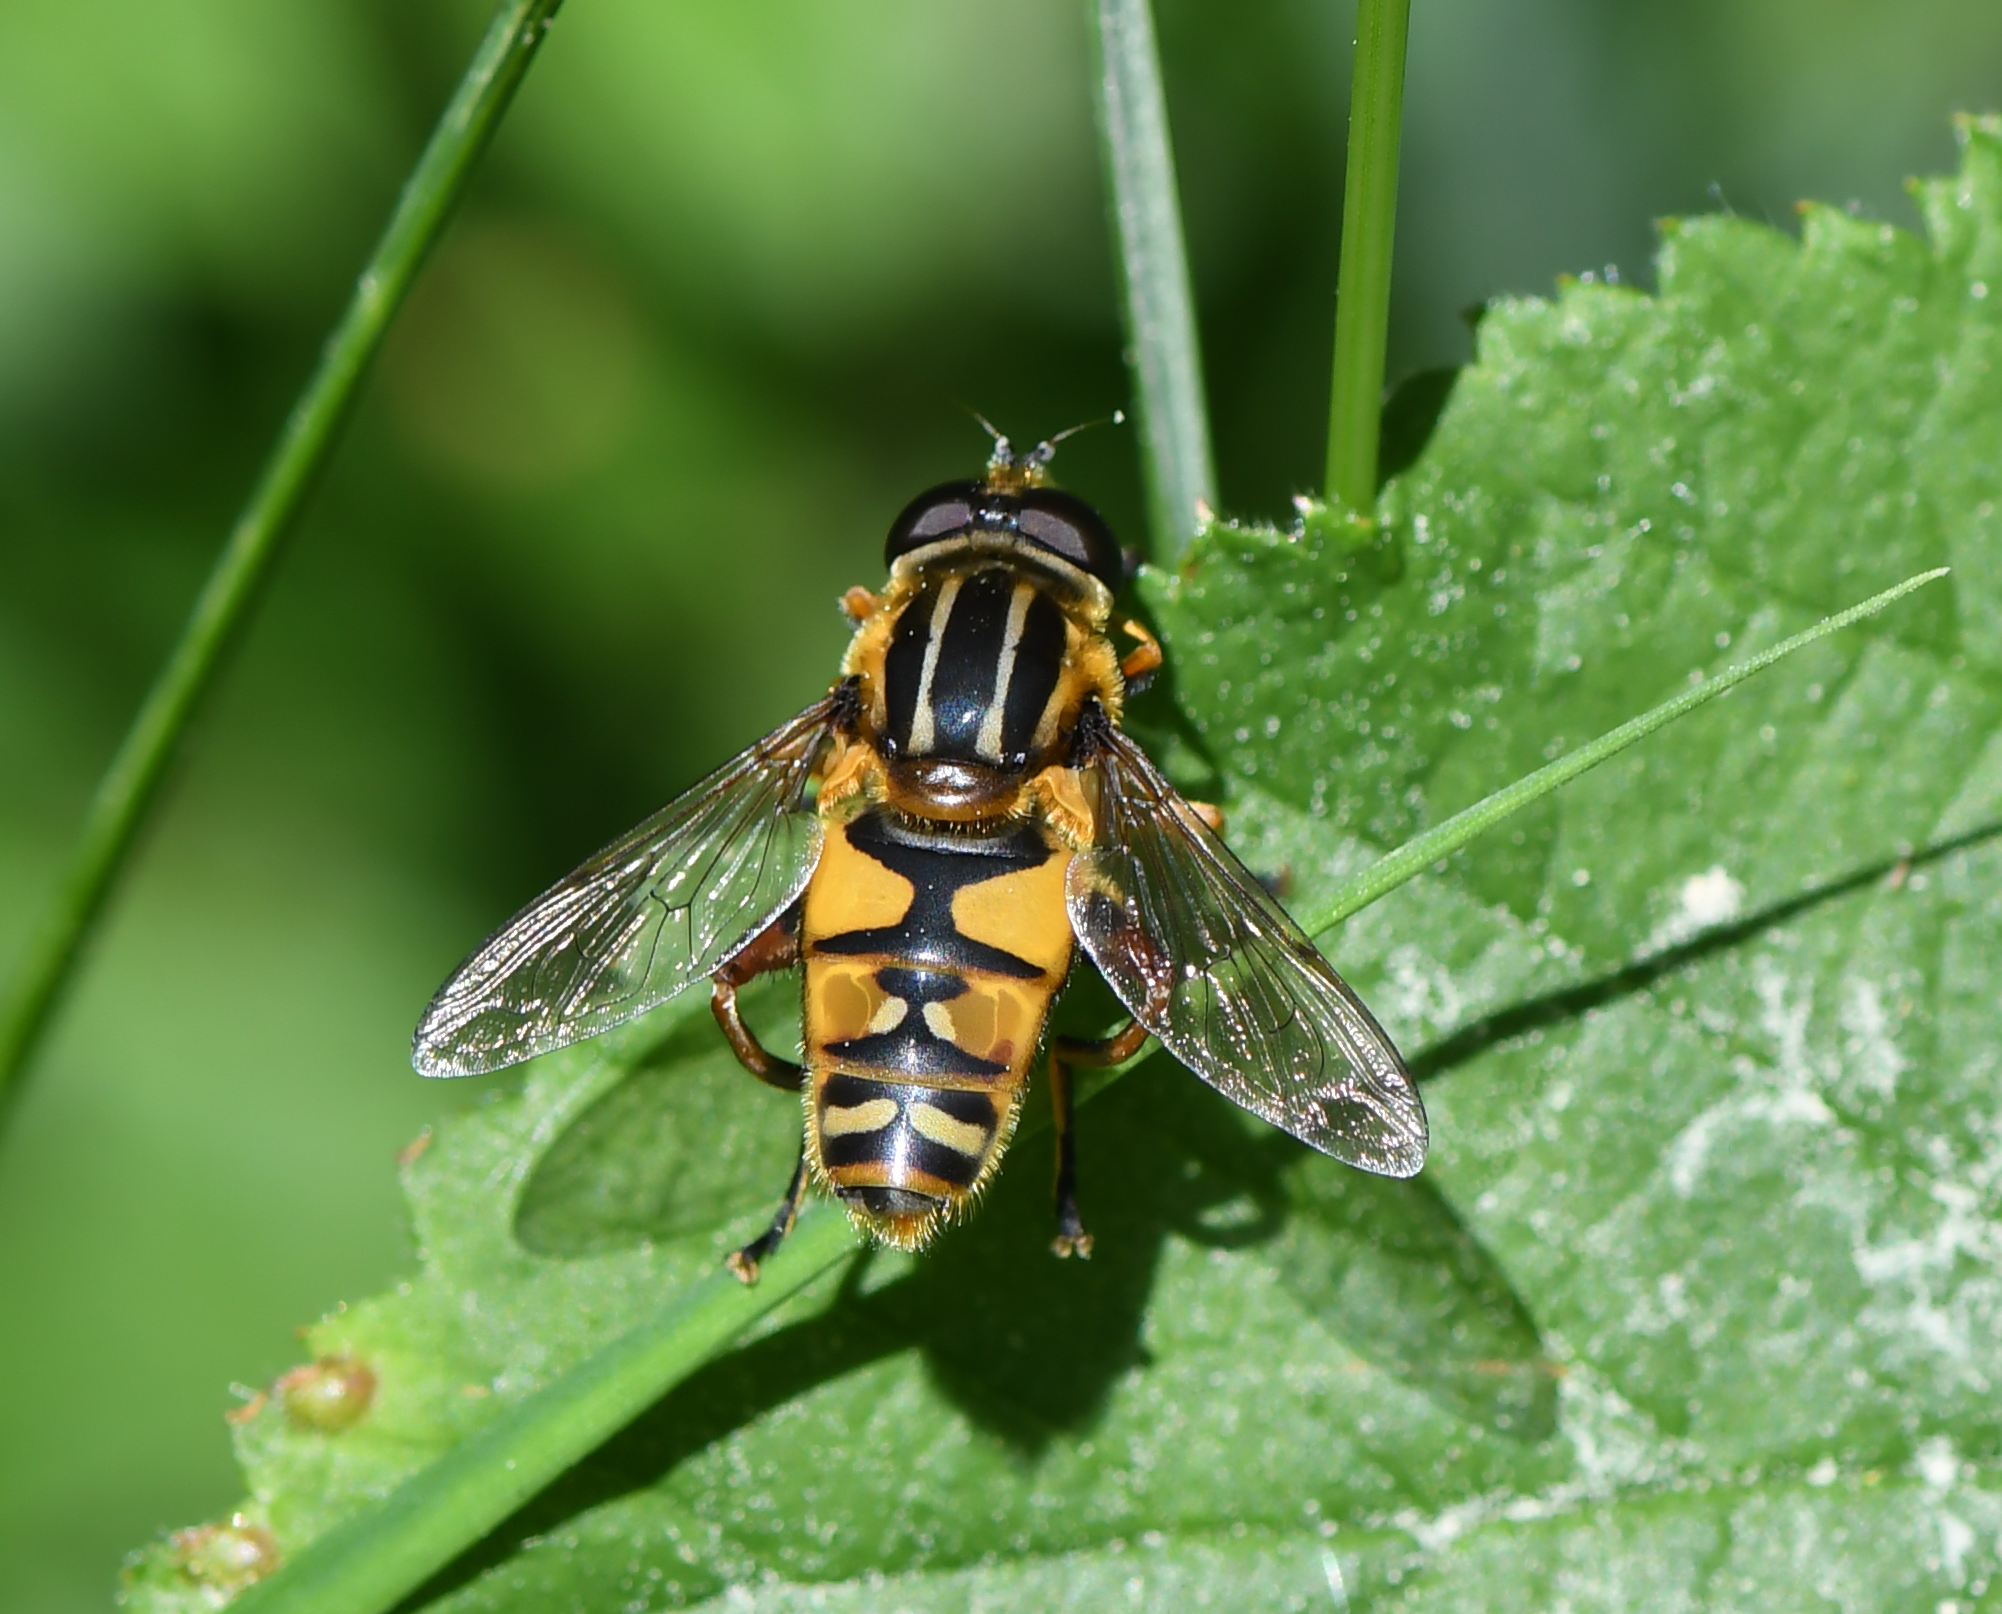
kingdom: Animalia
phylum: Arthropoda
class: Insecta
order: Diptera
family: Syrphidae
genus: Helophilus
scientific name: Helophilus pendulus
